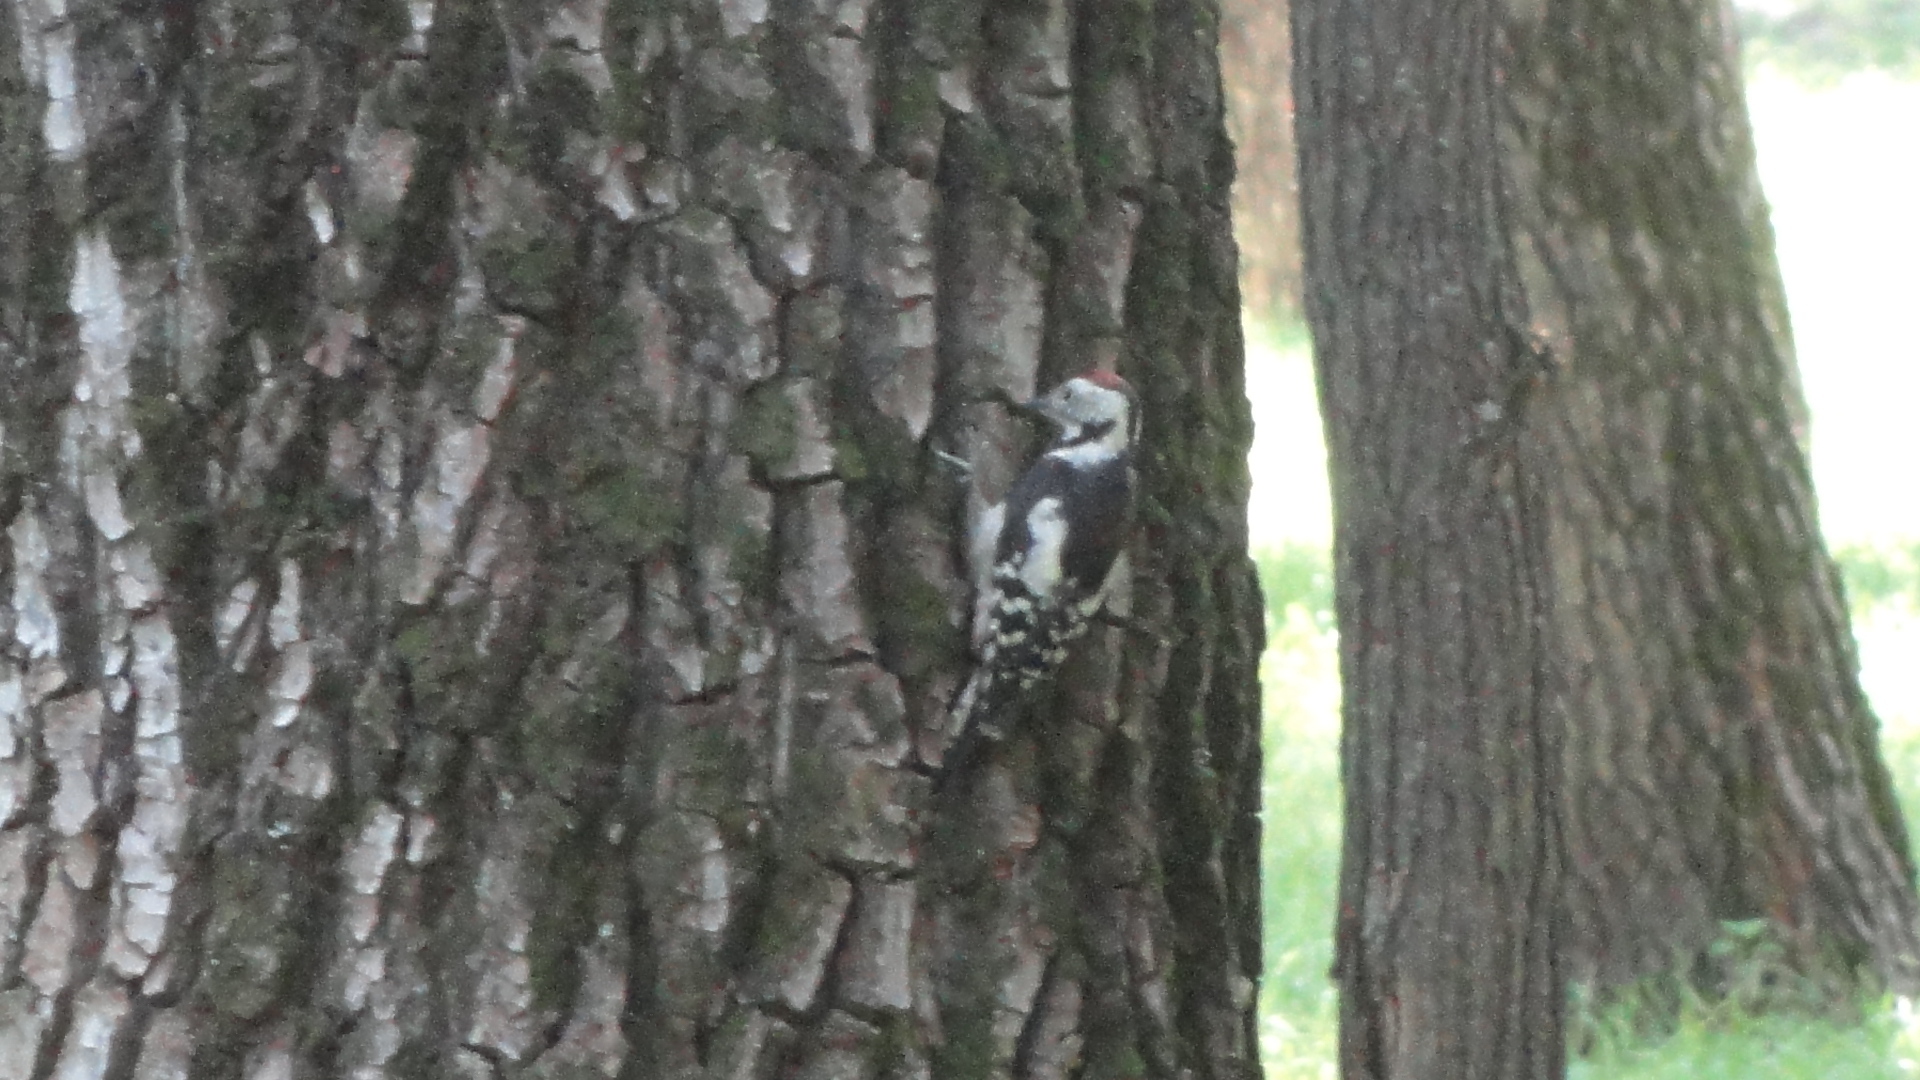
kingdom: Animalia
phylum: Chordata
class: Aves
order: Piciformes
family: Picidae
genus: Dendrocoptes
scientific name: Dendrocoptes medius
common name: Middle spotted woodpecker
